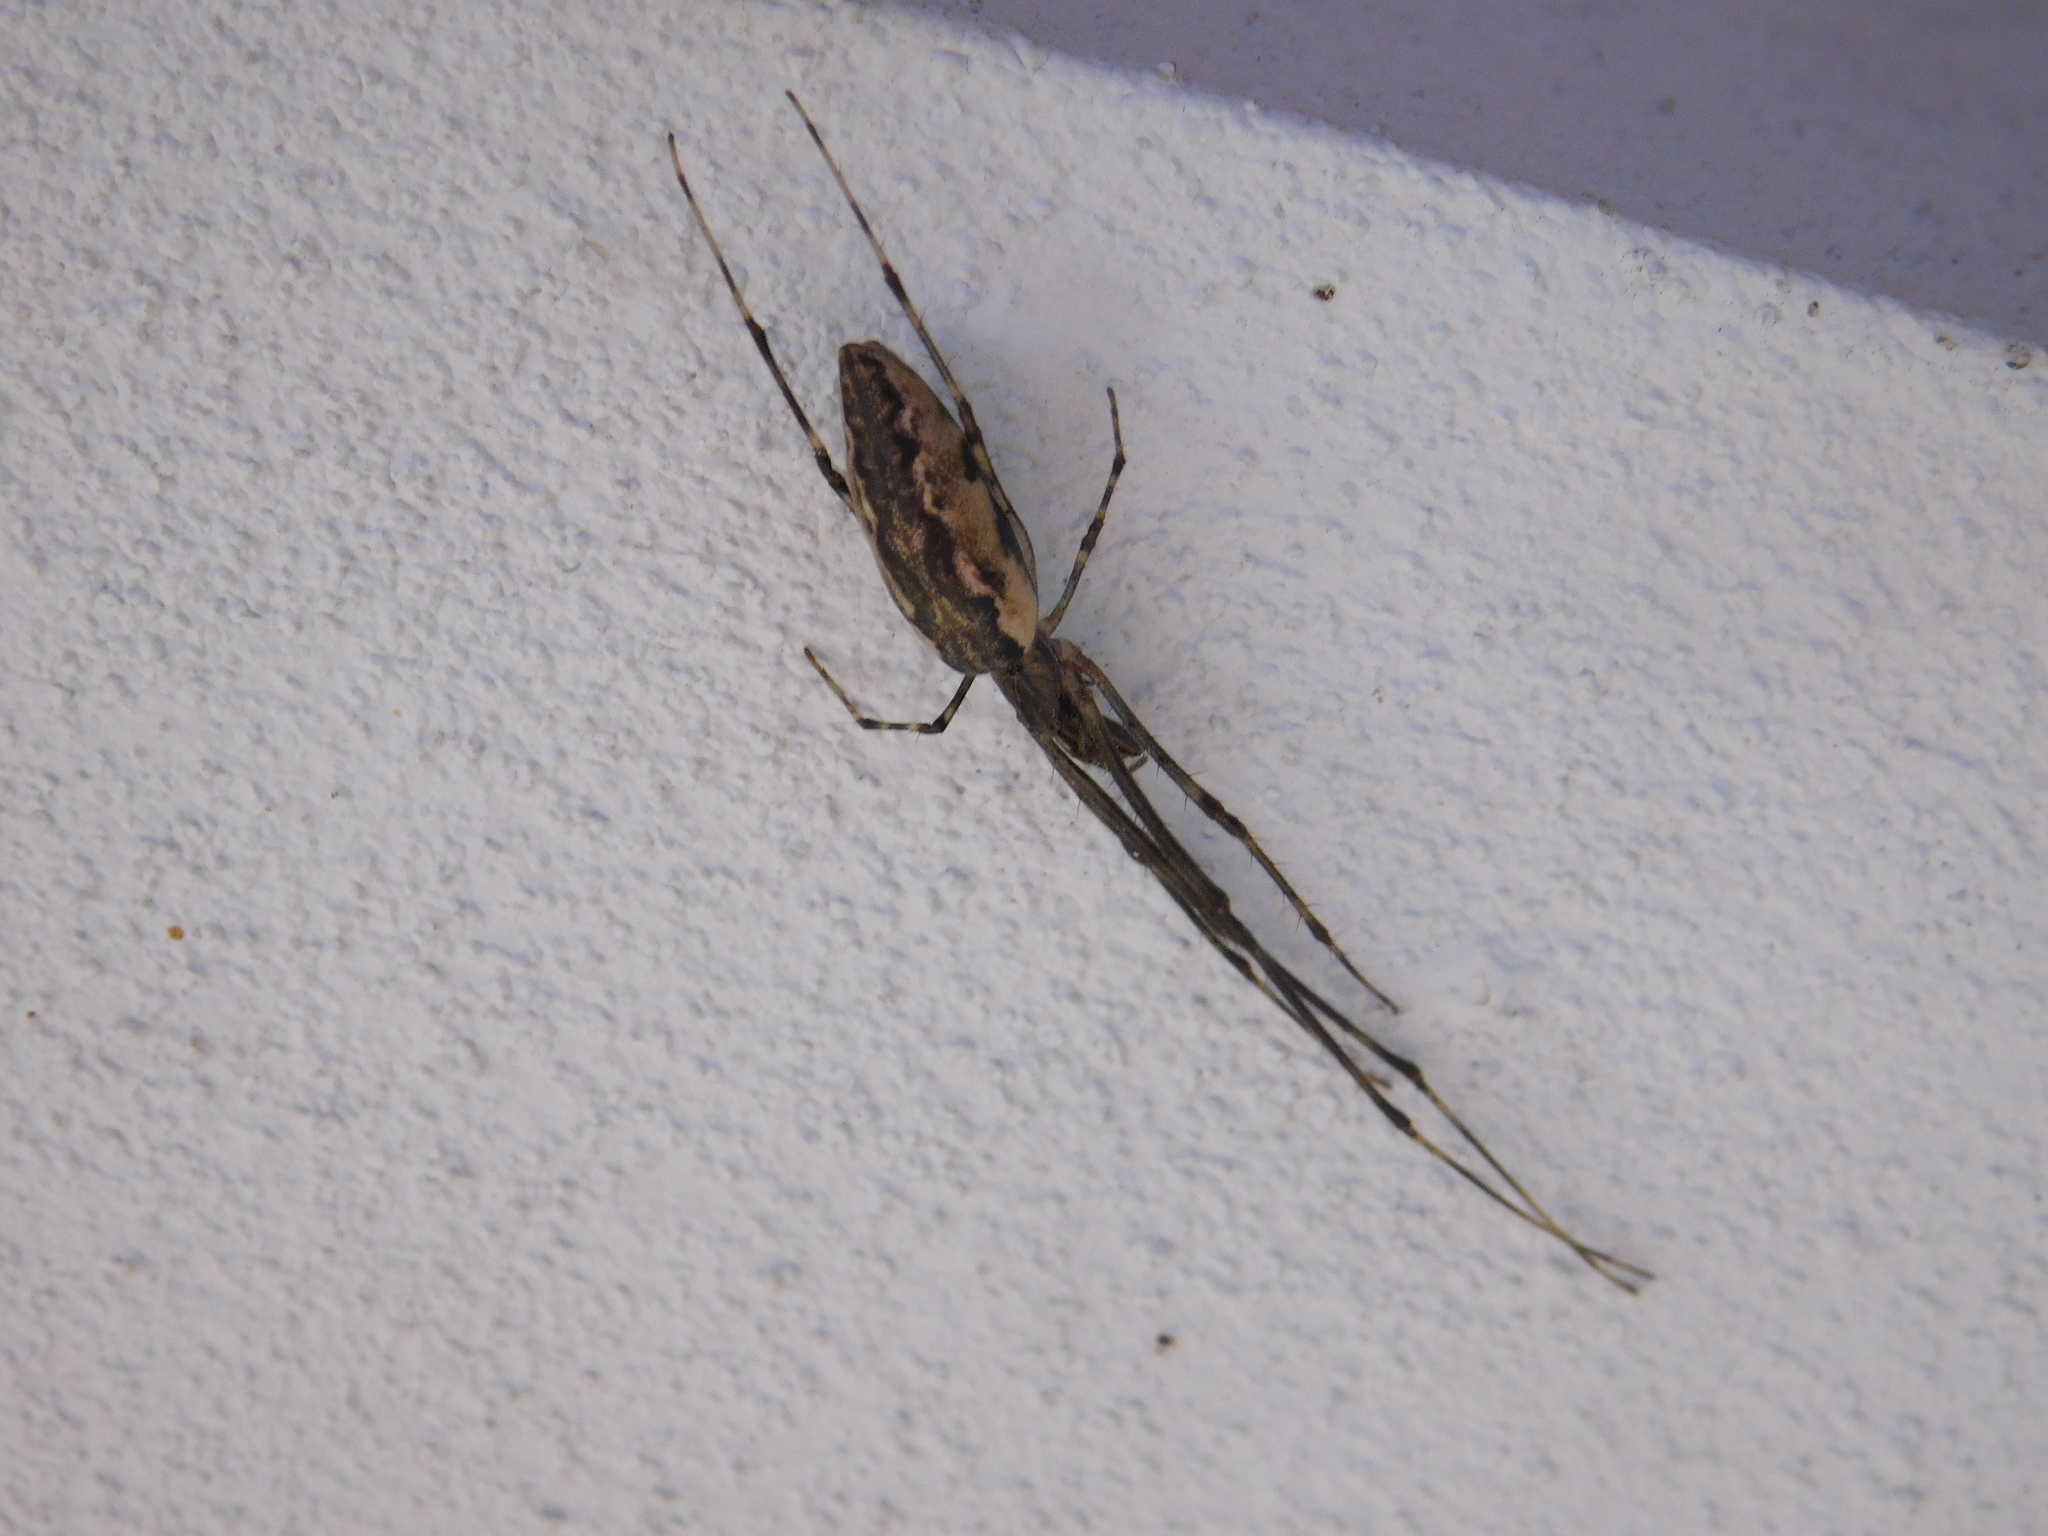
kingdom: Animalia
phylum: Arthropoda
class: Arachnida
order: Araneae
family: Tetragnathidae
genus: Tetragnatha
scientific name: Tetragnatha
